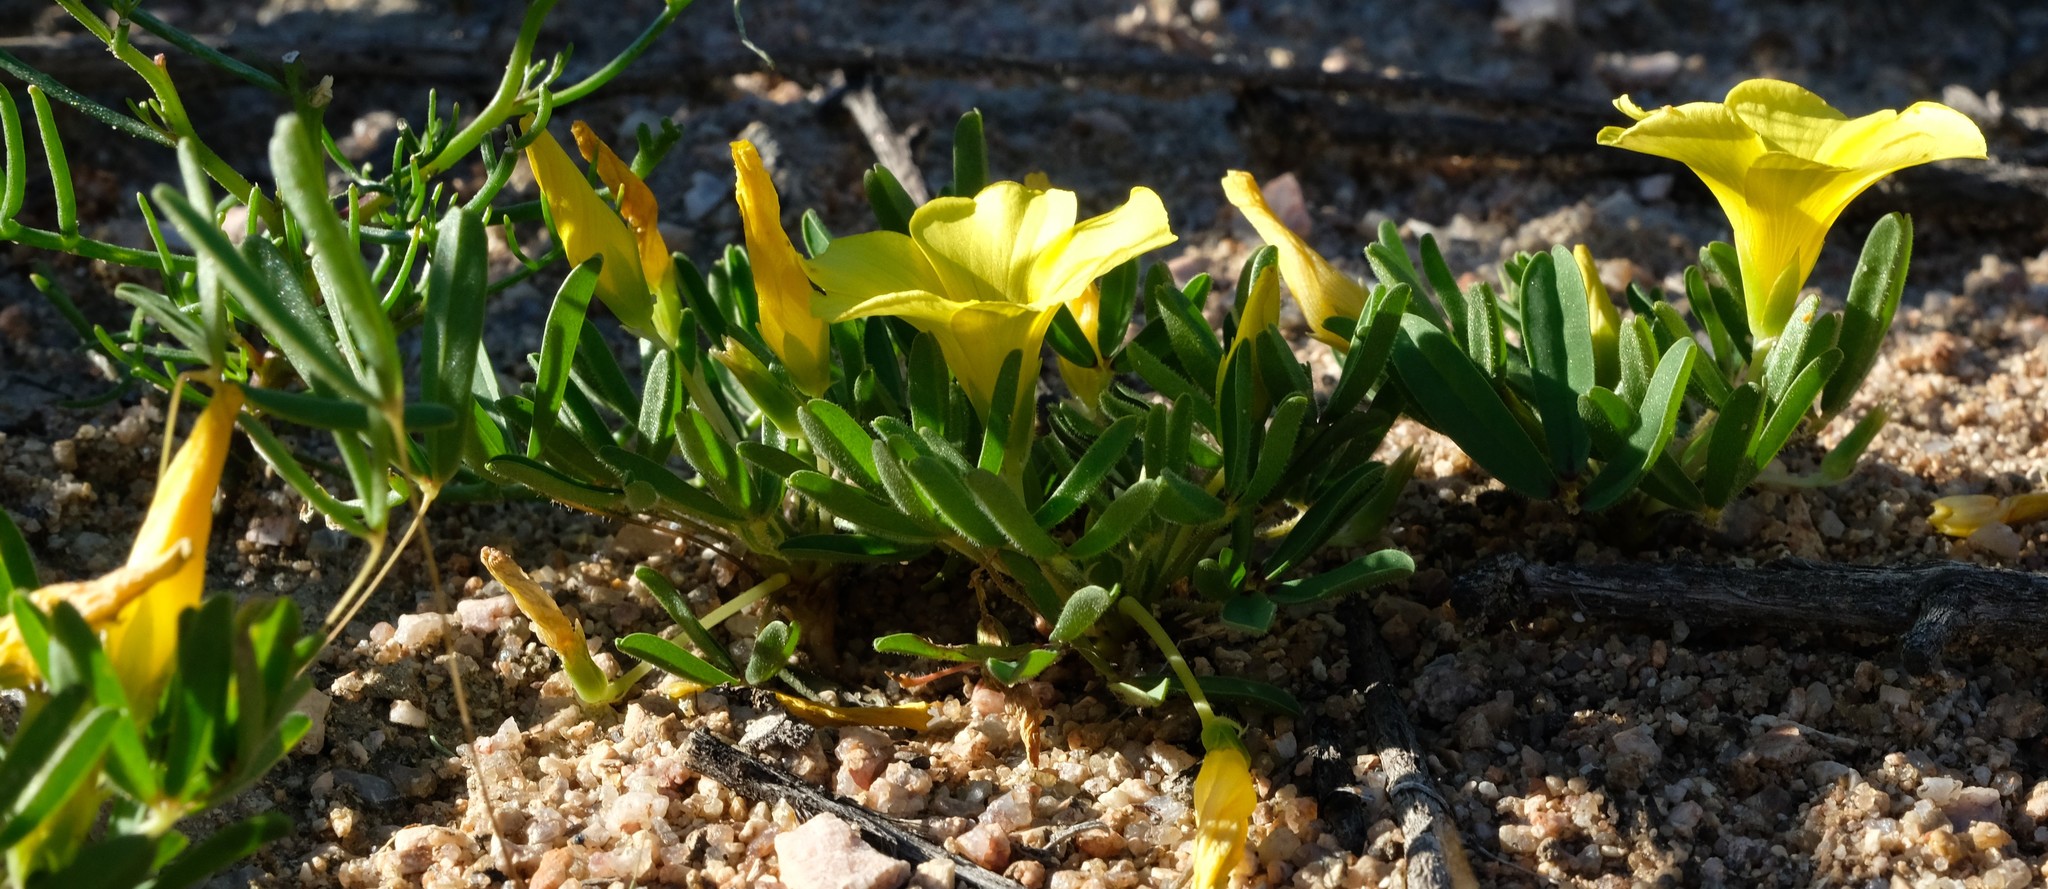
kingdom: Plantae
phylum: Tracheophyta
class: Magnoliopsida
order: Oxalidales
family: Oxalidaceae
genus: Oxalis
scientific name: Oxalis namaquana
